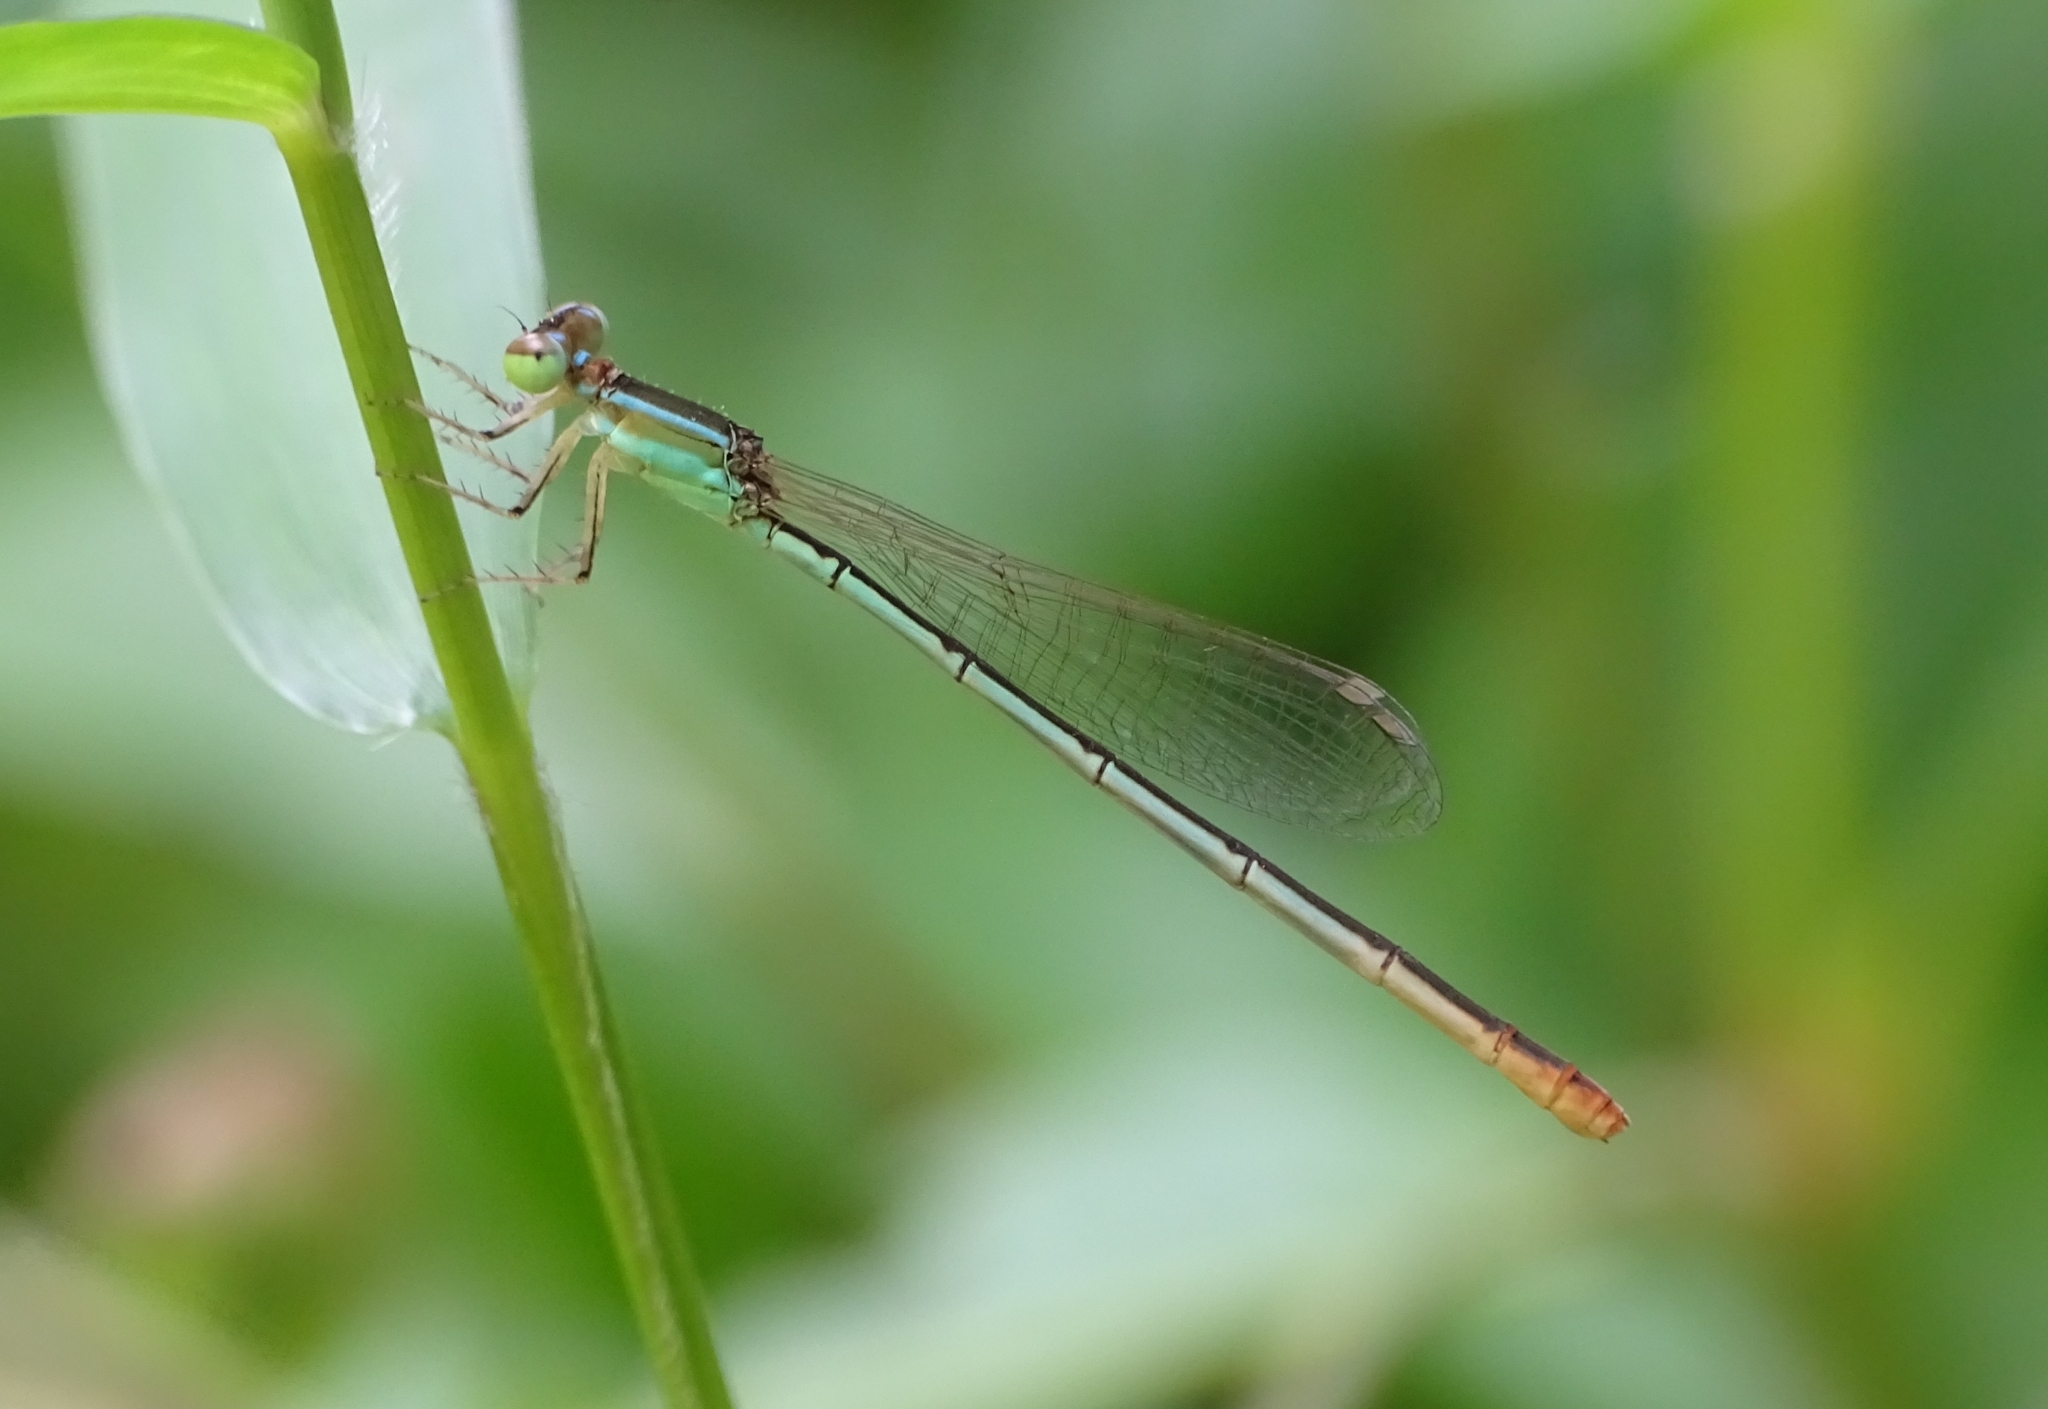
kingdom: Animalia
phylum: Arthropoda
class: Insecta
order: Odonata
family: Coenagrionidae
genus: Agriocnemis
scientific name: Agriocnemis pygmaea
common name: Pygmy wisp
